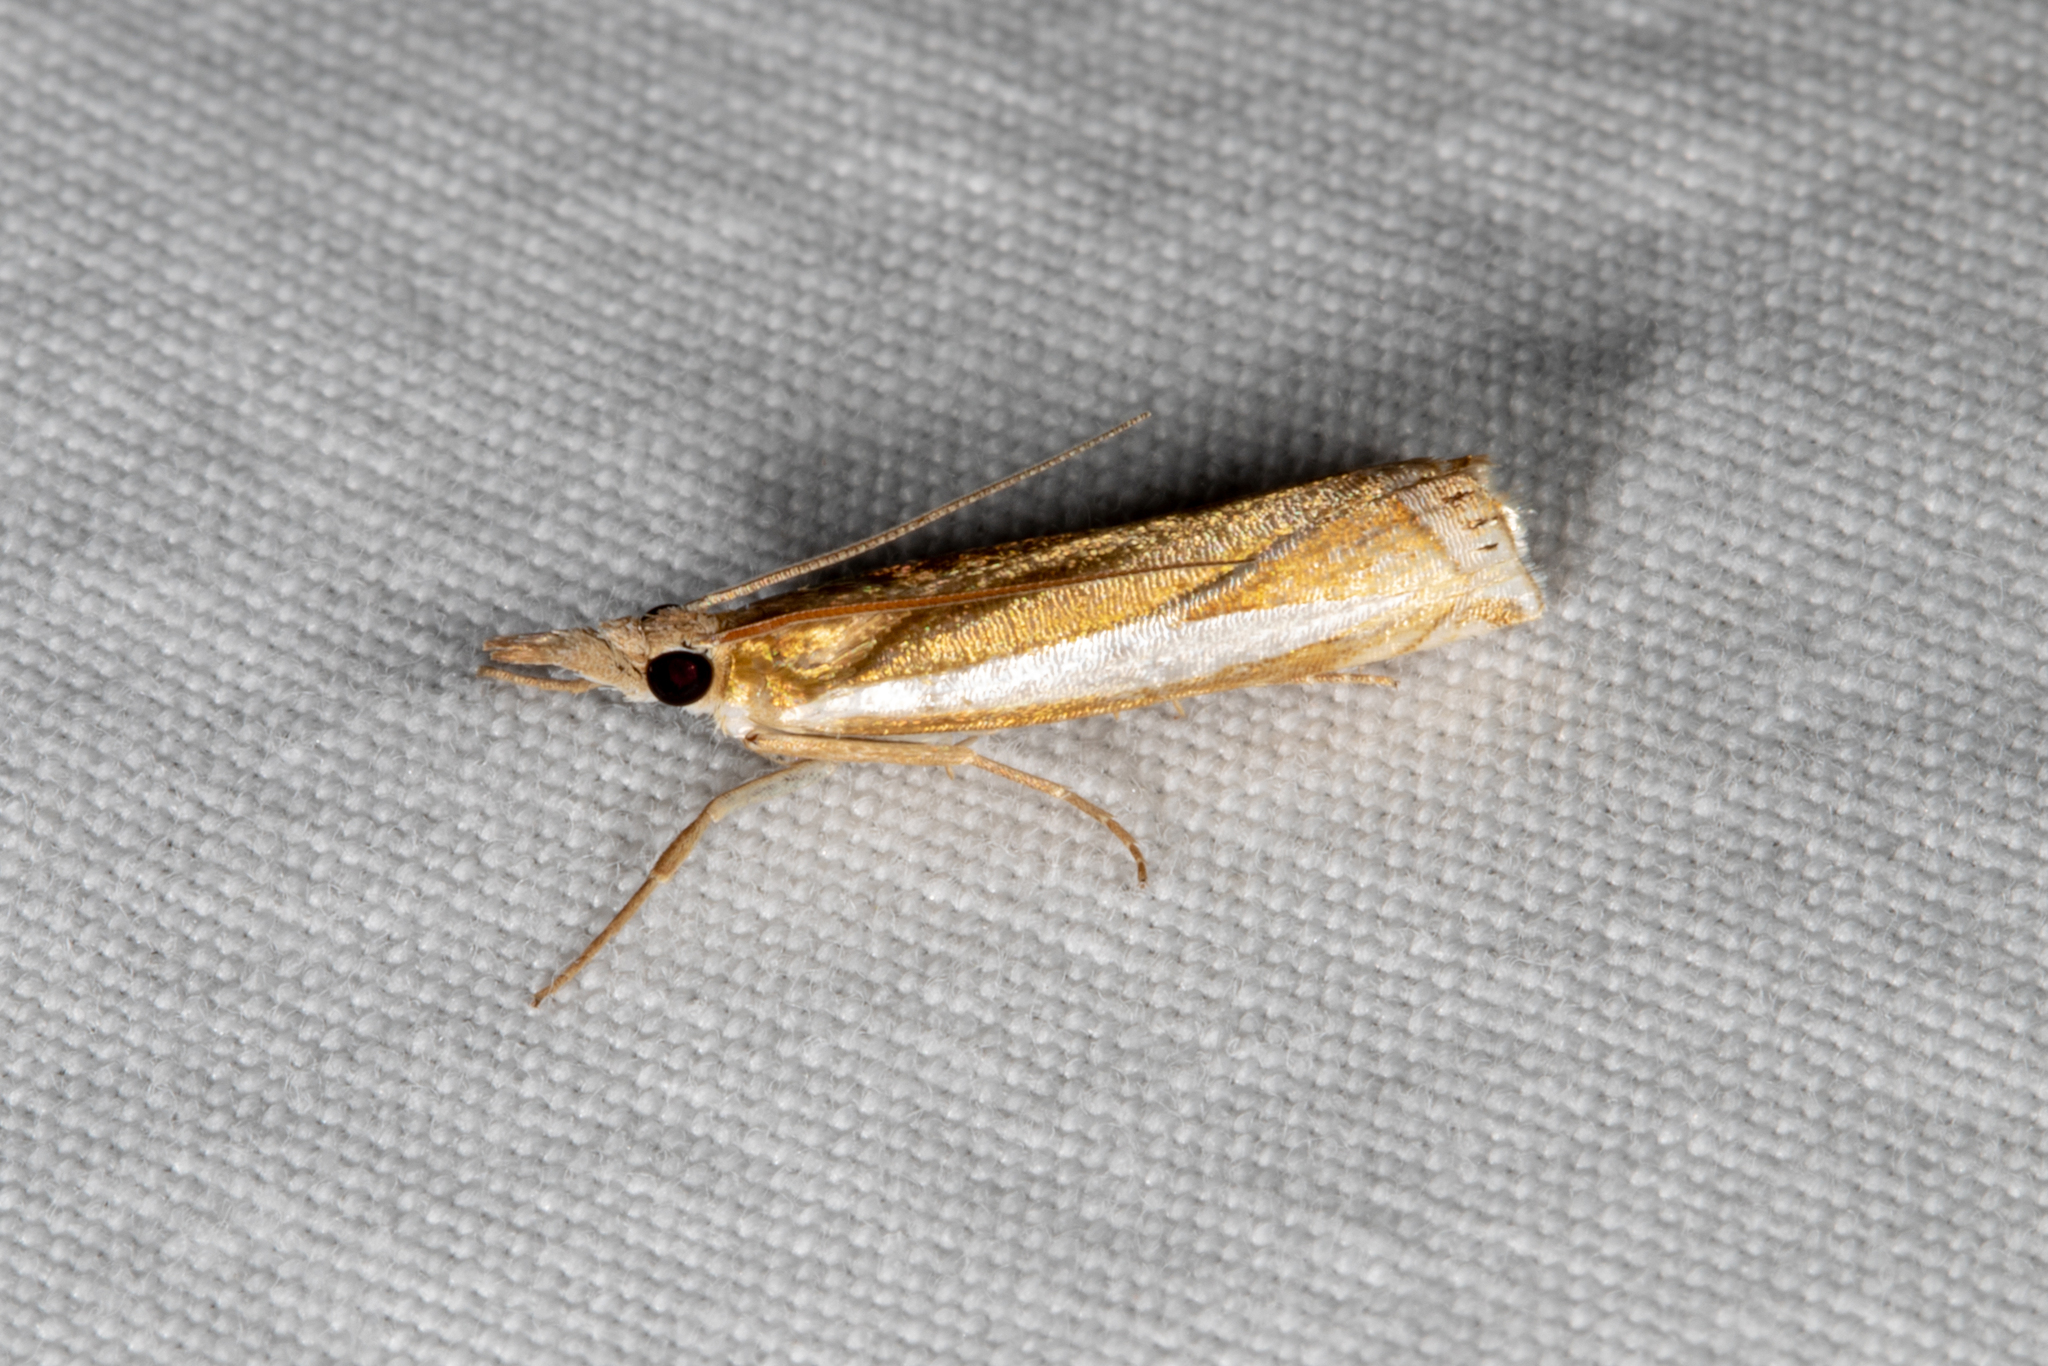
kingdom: Animalia
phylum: Arthropoda
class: Insecta
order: Lepidoptera
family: Crambidae
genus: Crambus
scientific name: Crambus praefectellus
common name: Common grass-veneer
